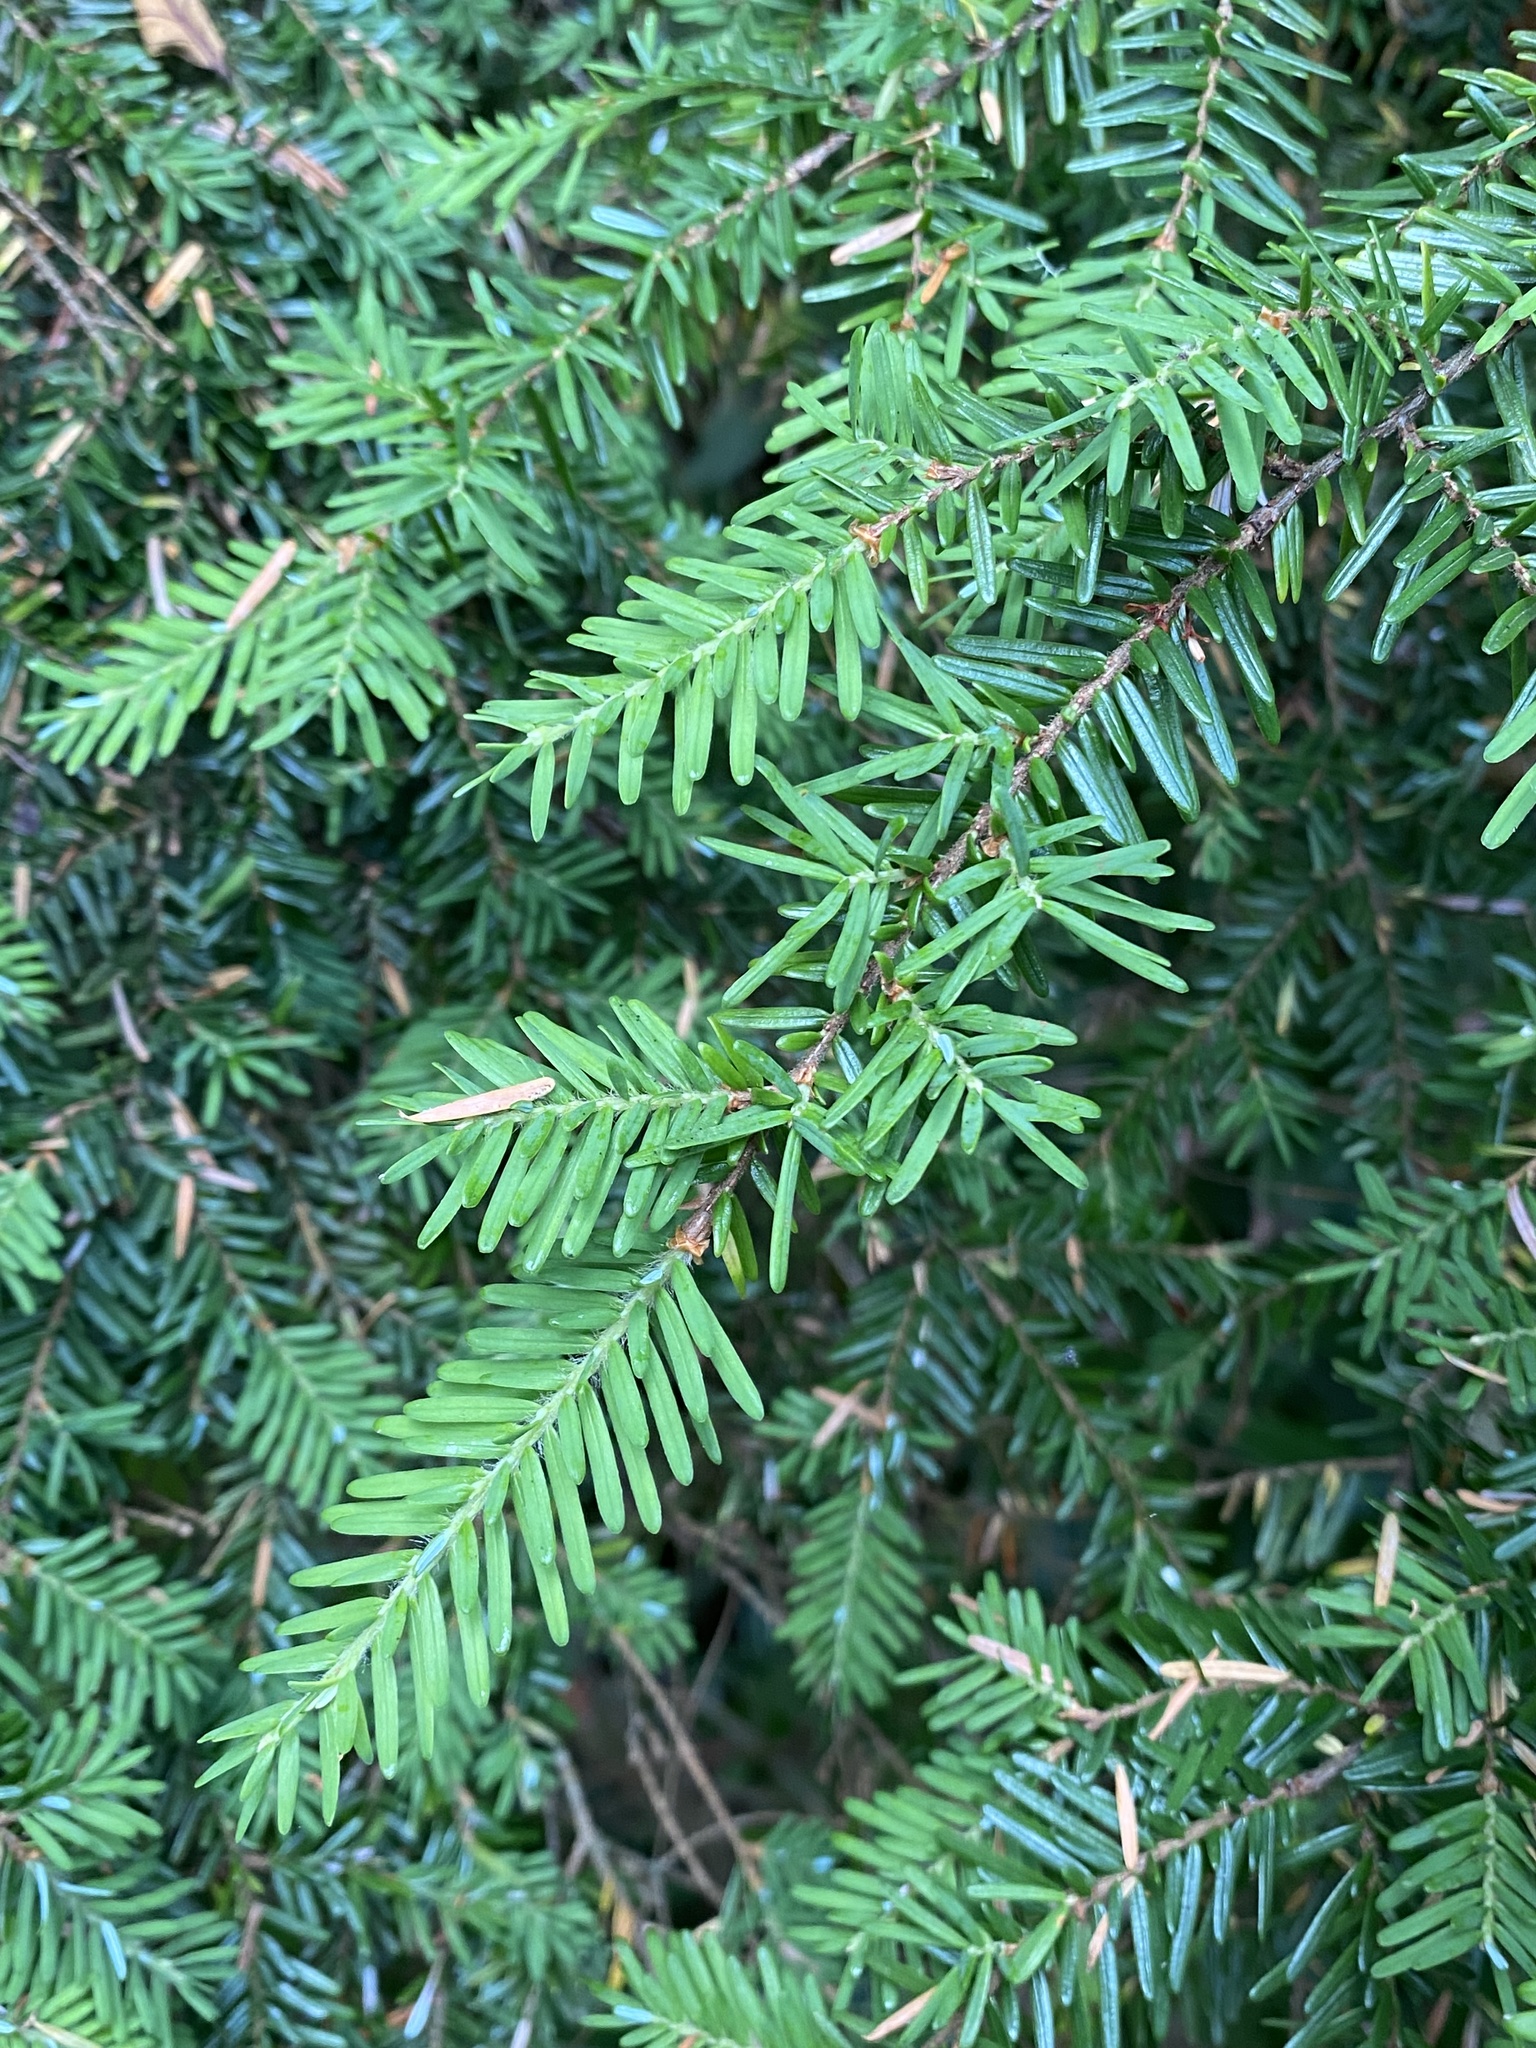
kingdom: Plantae
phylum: Tracheophyta
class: Pinopsida
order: Pinales
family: Pinaceae
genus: Tsuga
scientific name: Tsuga heterophylla
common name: Western hemlock
